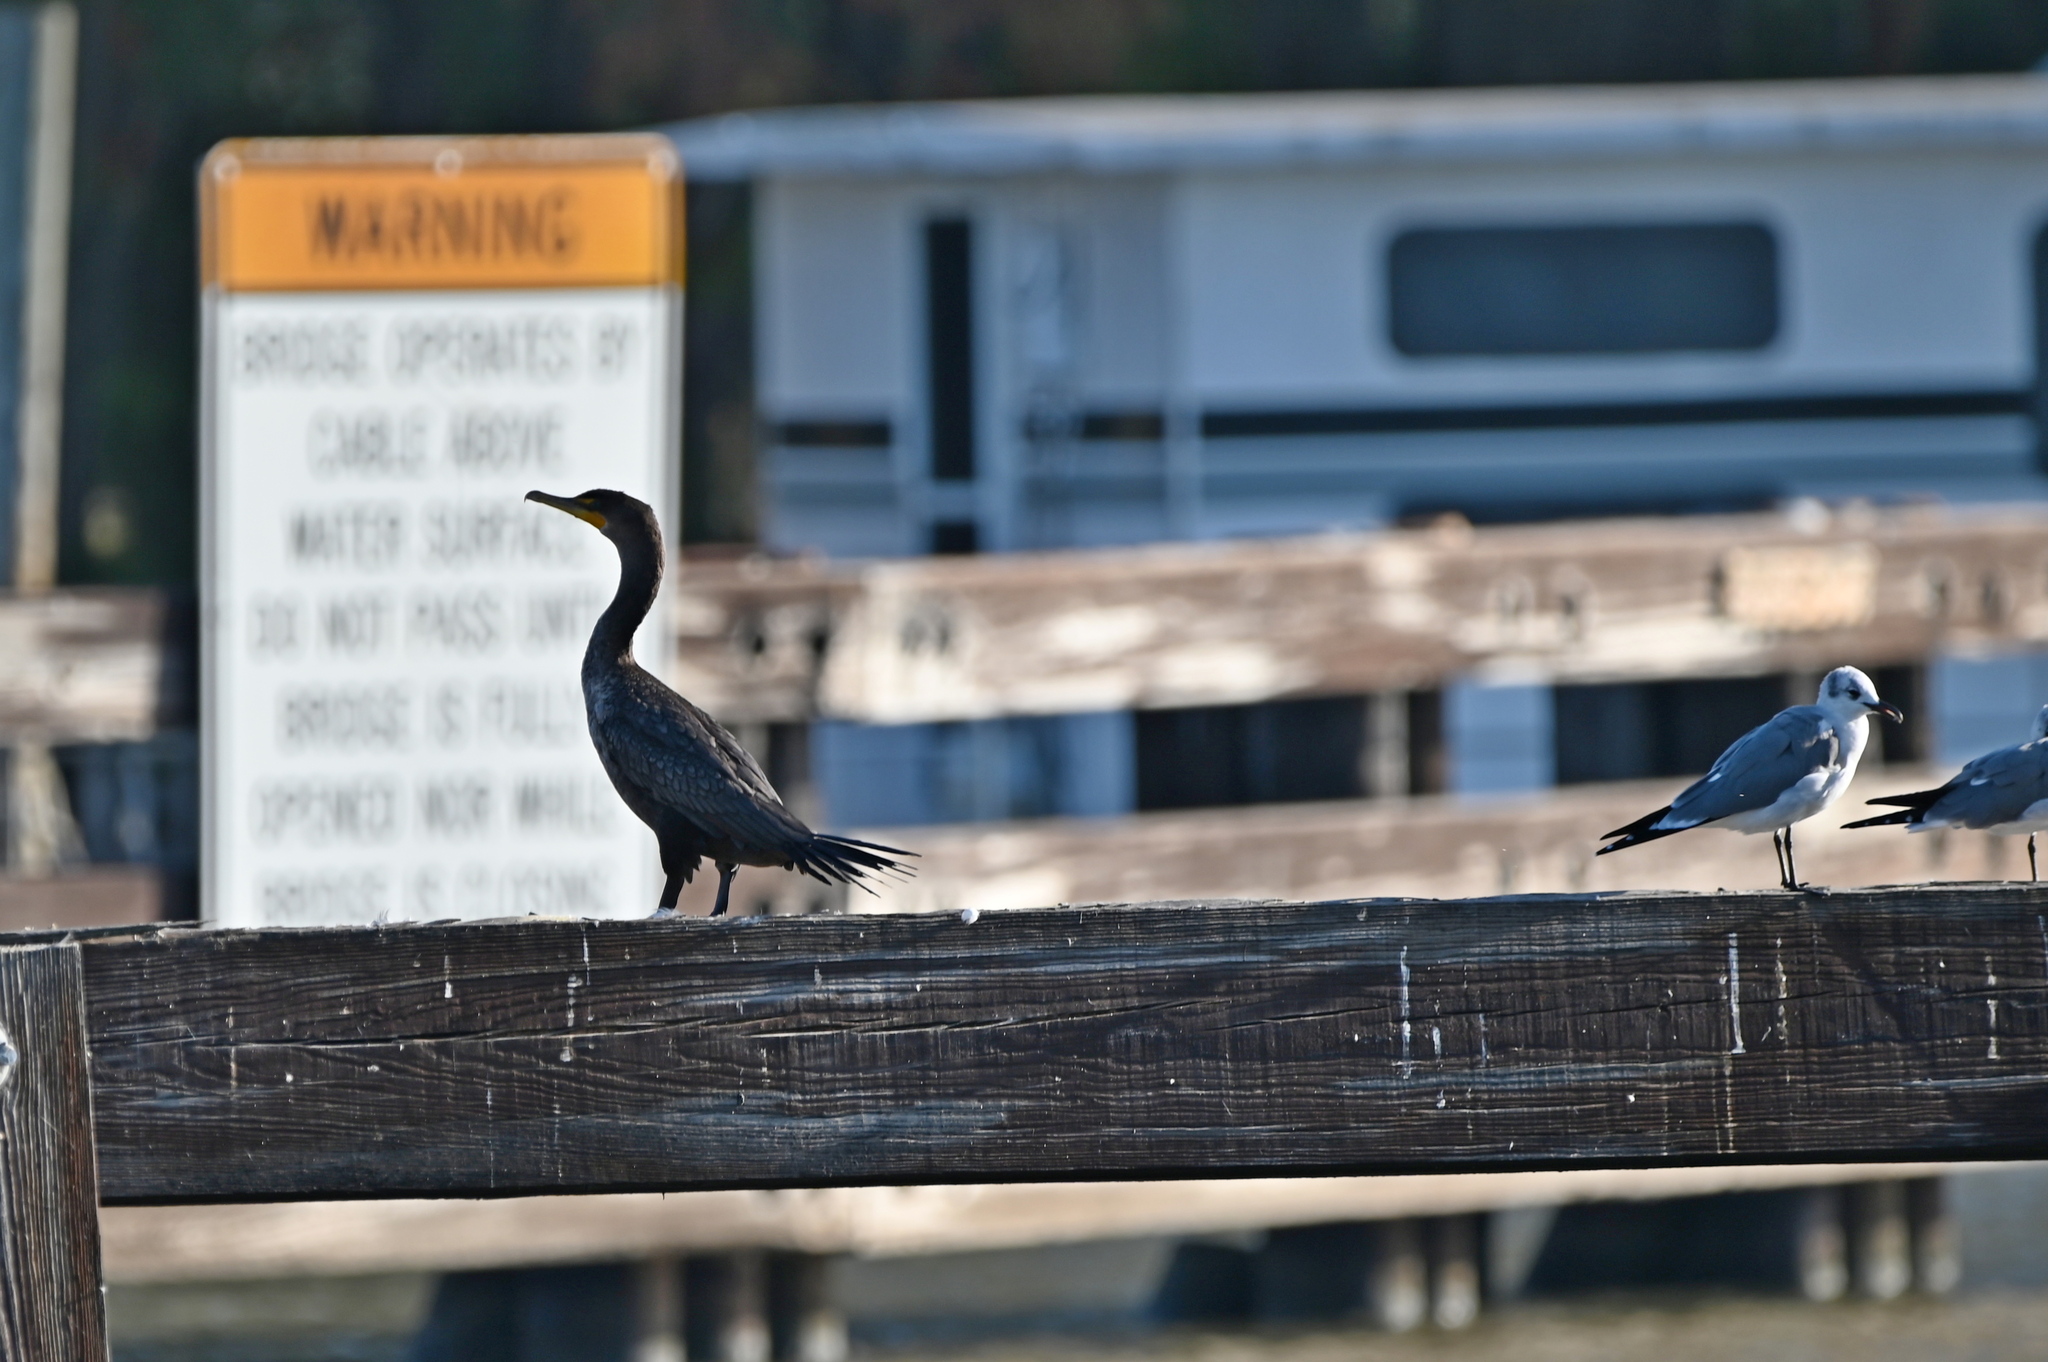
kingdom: Animalia
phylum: Chordata
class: Aves
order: Suliformes
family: Phalacrocoracidae
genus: Phalacrocorax
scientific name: Phalacrocorax auritus
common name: Double-crested cormorant
